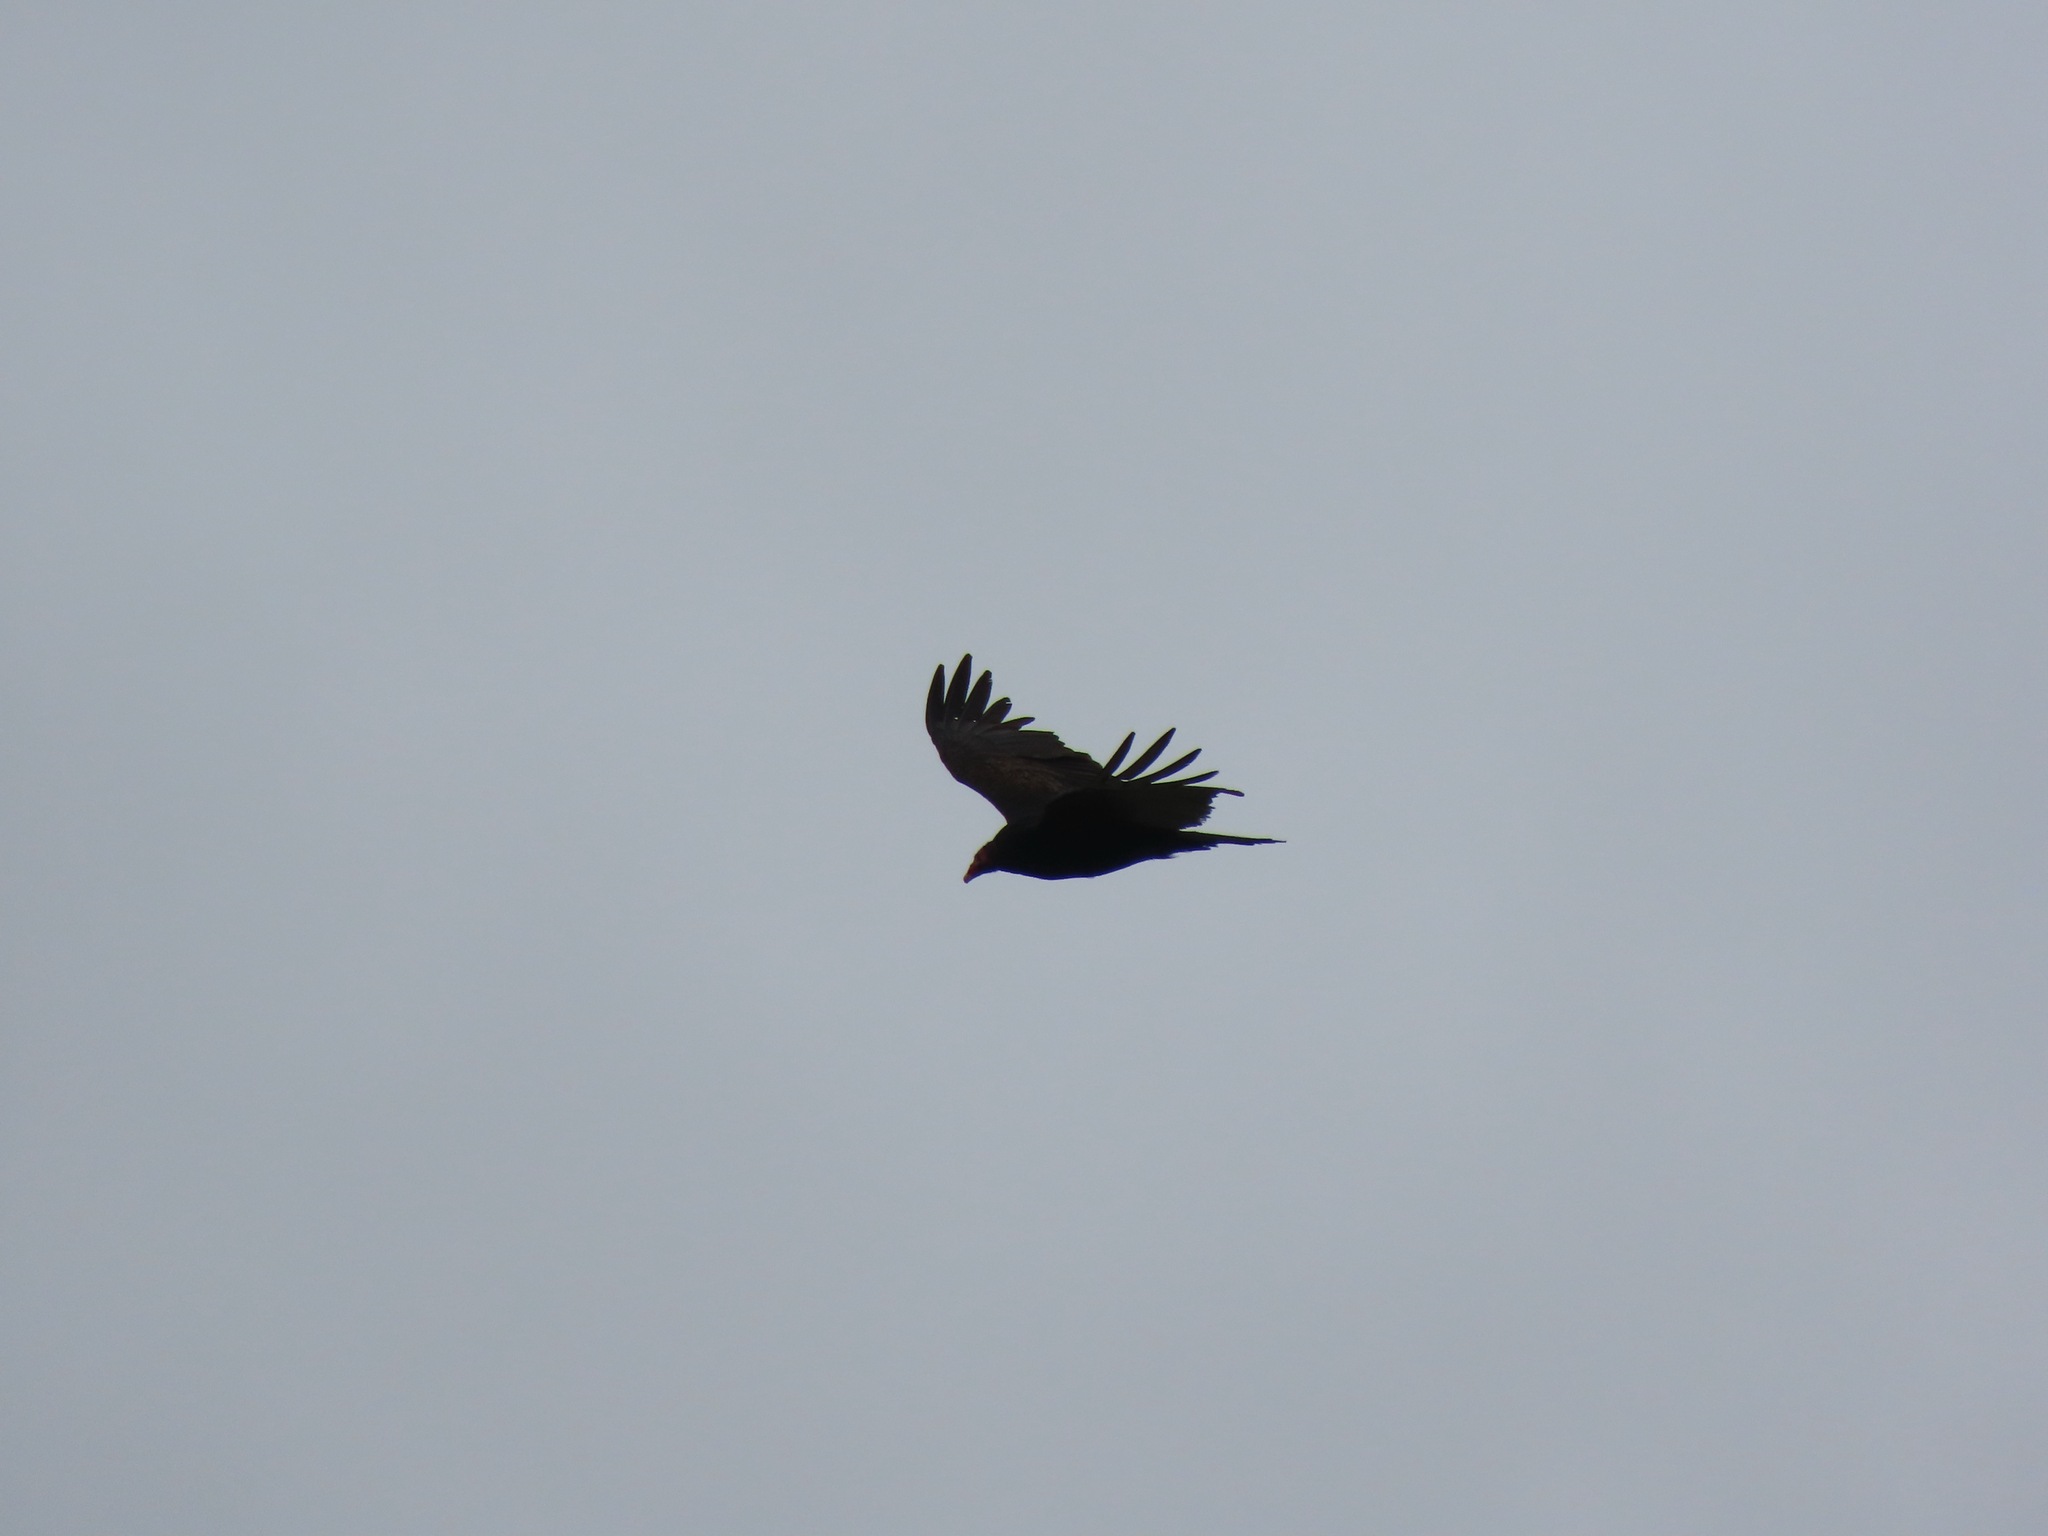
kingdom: Animalia
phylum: Chordata
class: Aves
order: Accipitriformes
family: Cathartidae
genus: Cathartes
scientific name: Cathartes aura
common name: Turkey vulture
